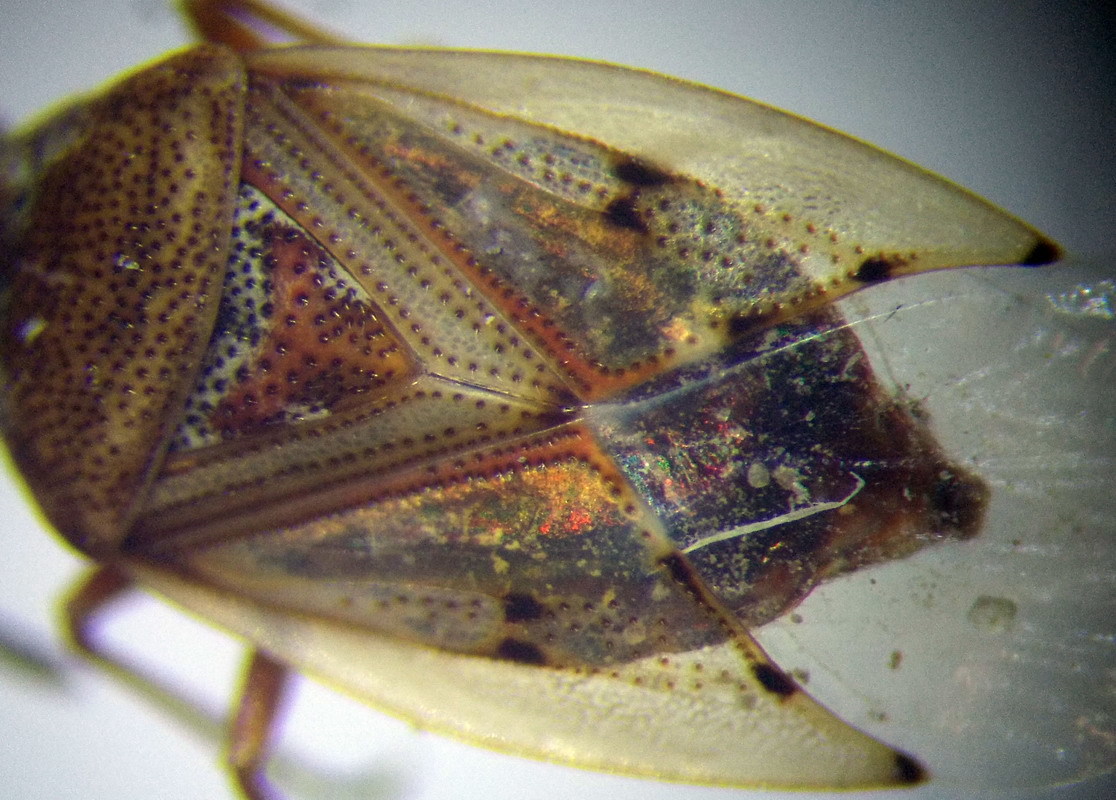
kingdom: Animalia
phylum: Arthropoda
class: Insecta
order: Hemiptera
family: Lygaeidae
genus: Kleidocerys
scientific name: Kleidocerys resedae
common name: Birch catkin bug
